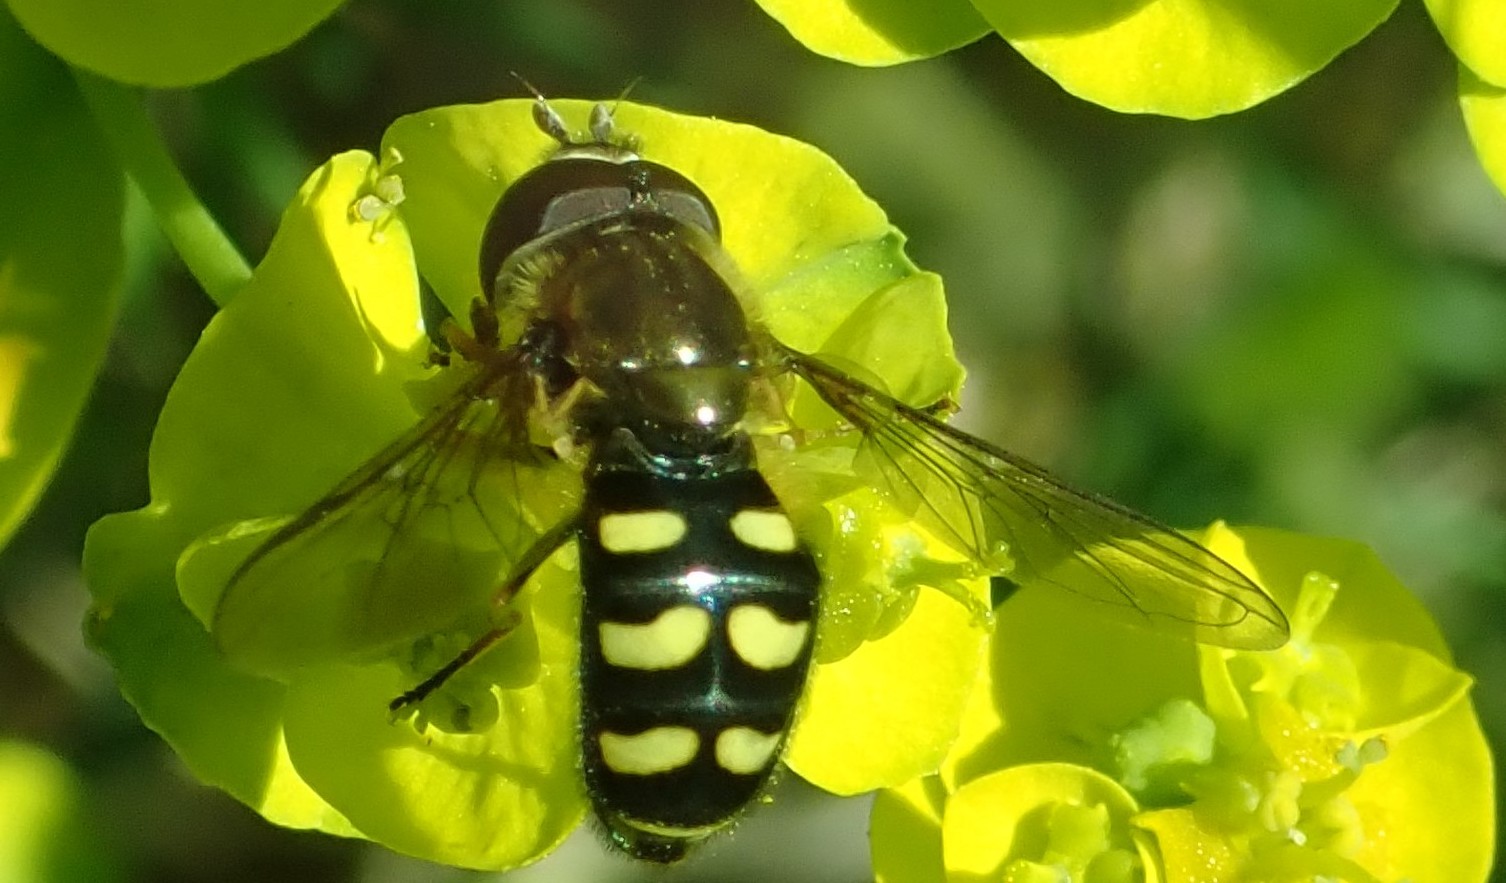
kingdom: Animalia
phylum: Arthropoda
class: Insecta
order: Diptera
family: Syrphidae
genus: Lapposyrphus
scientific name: Lapposyrphus lapponicus
